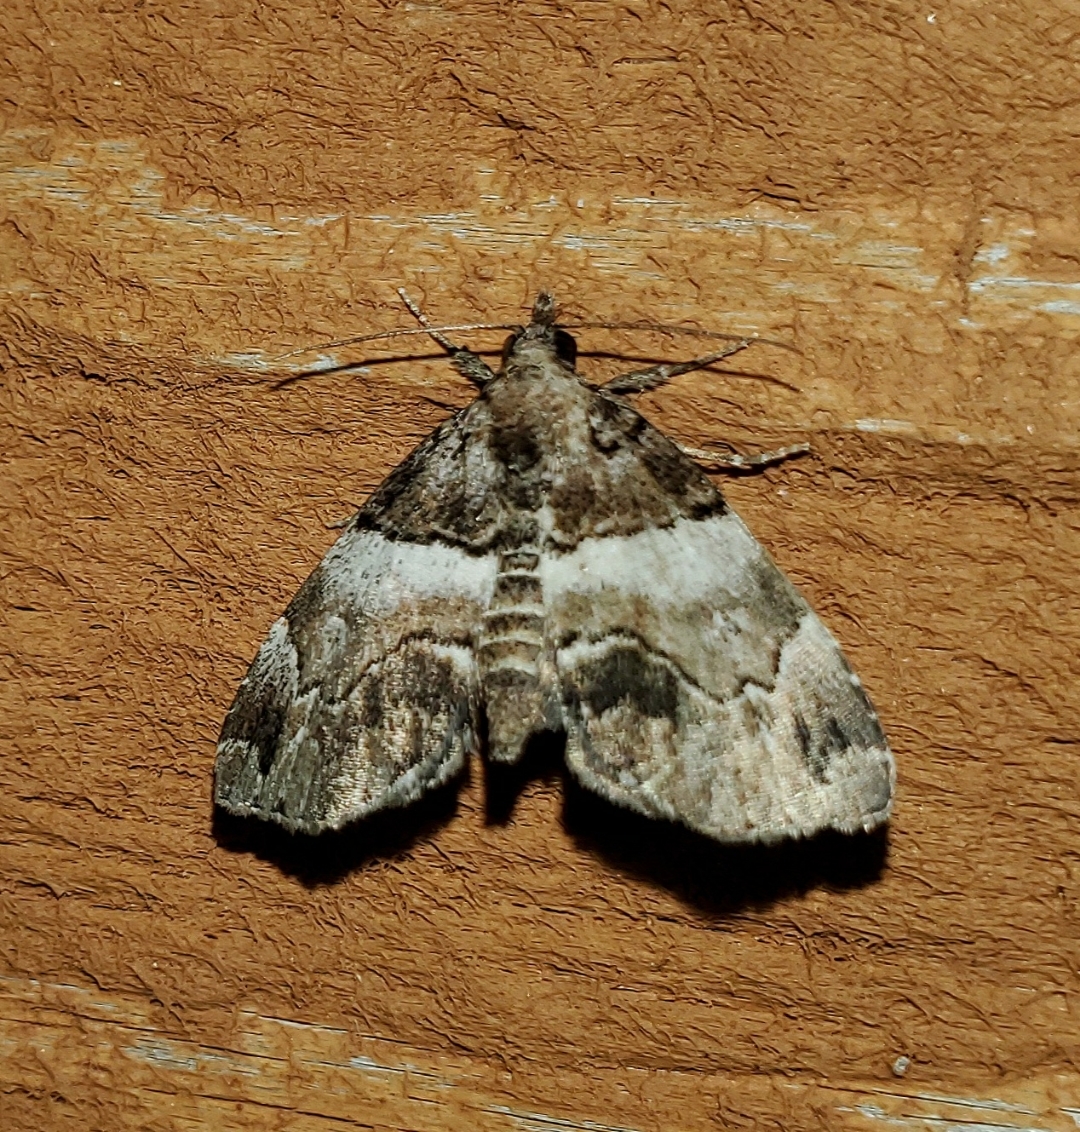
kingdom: Animalia
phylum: Arthropoda
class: Insecta
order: Lepidoptera
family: Erebidae
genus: Cutina
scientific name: Cutina distincta
